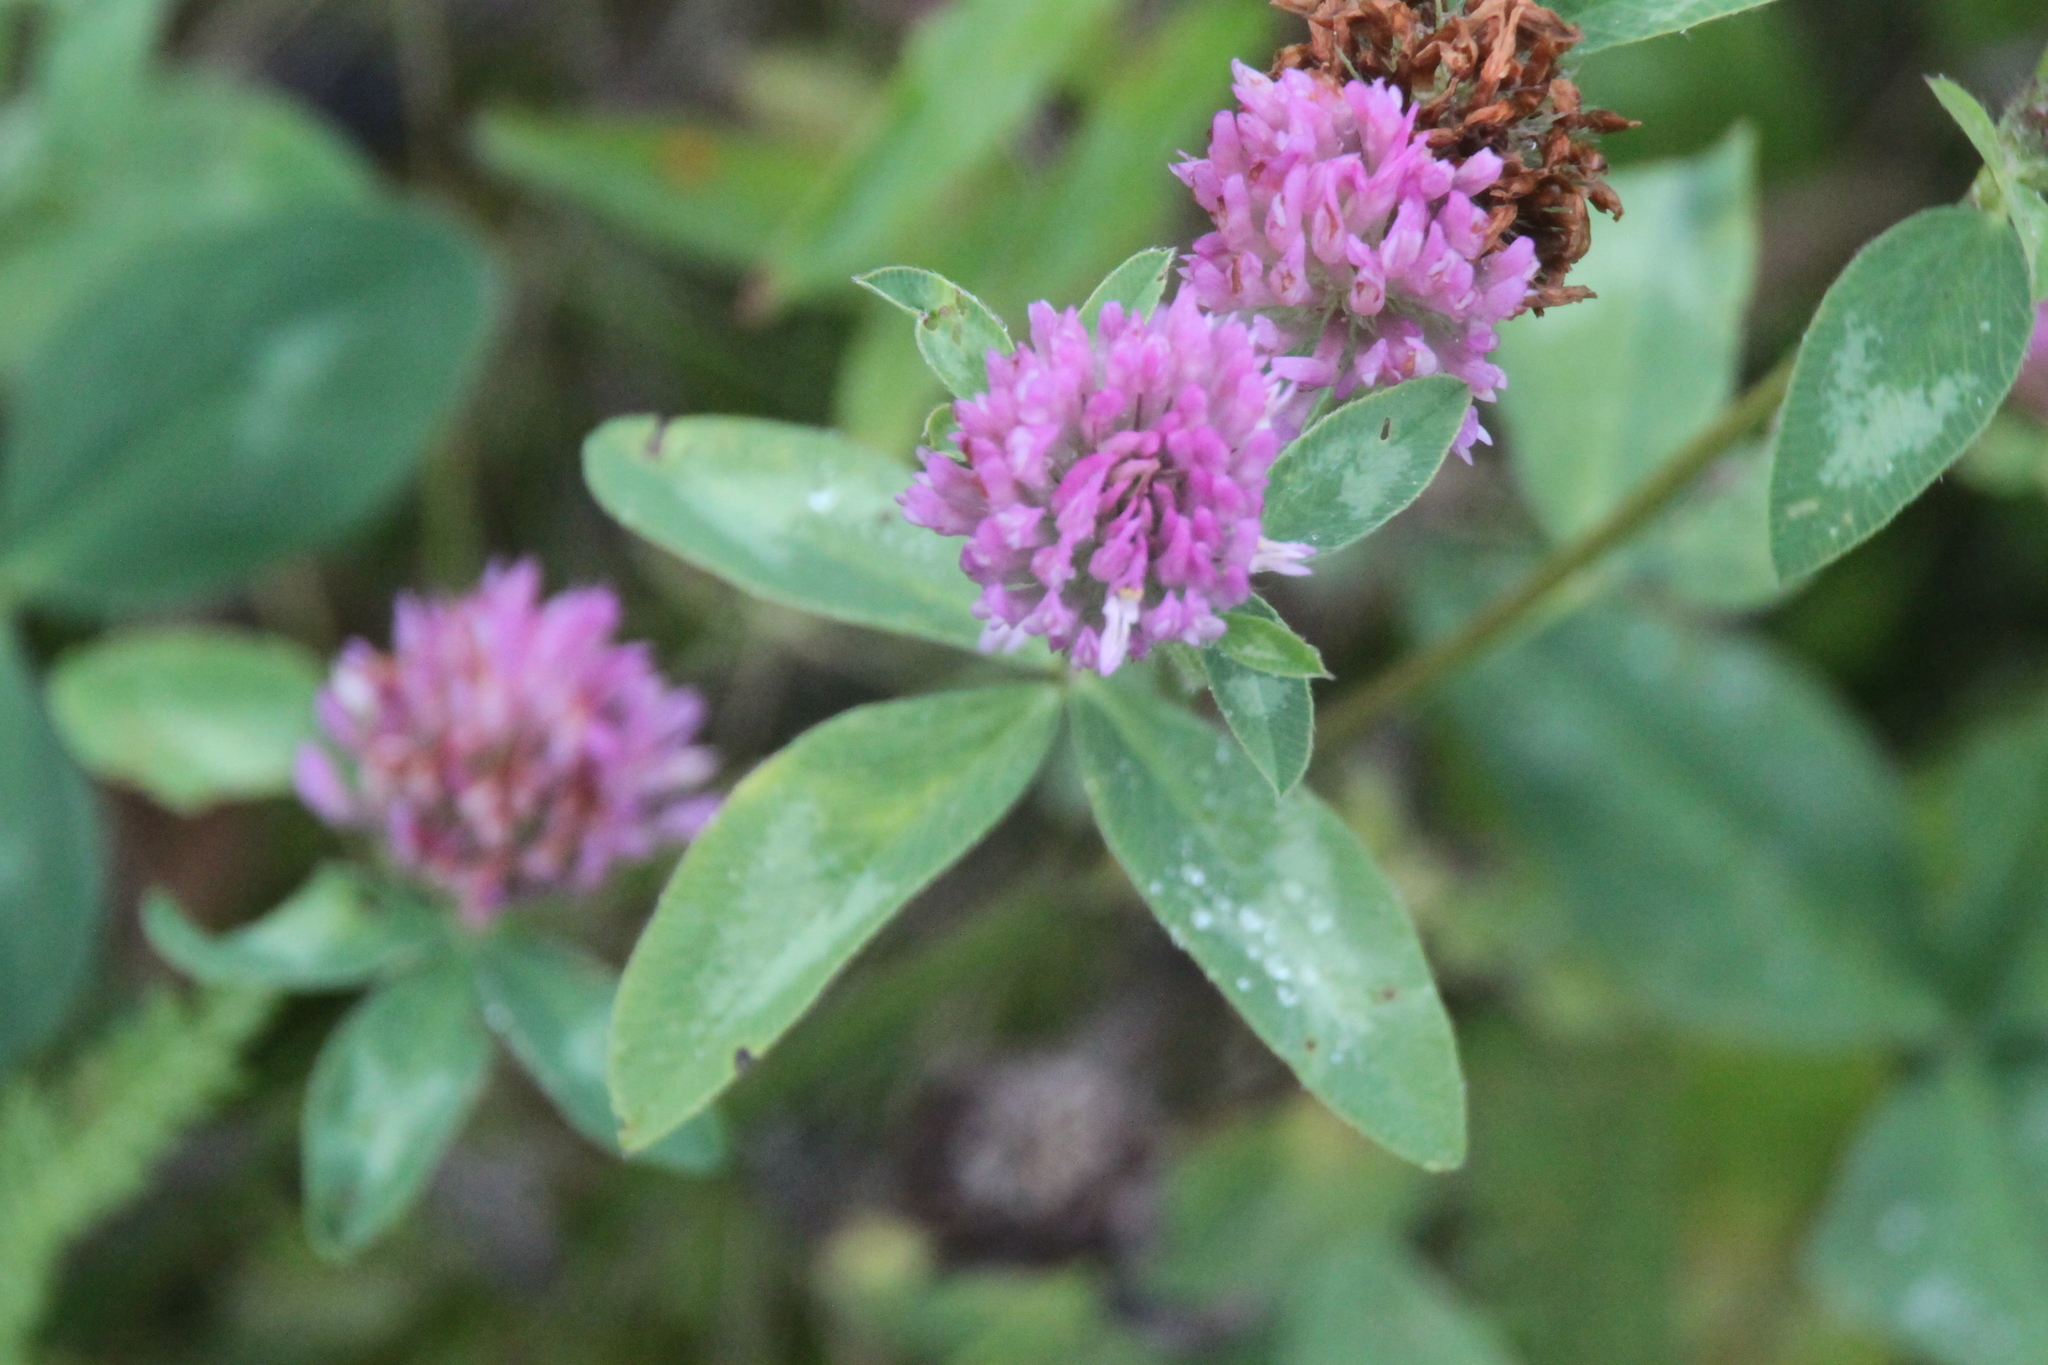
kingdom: Plantae
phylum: Tracheophyta
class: Magnoliopsida
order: Fabales
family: Fabaceae
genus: Trifolium
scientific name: Trifolium pratense
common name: Red clover
